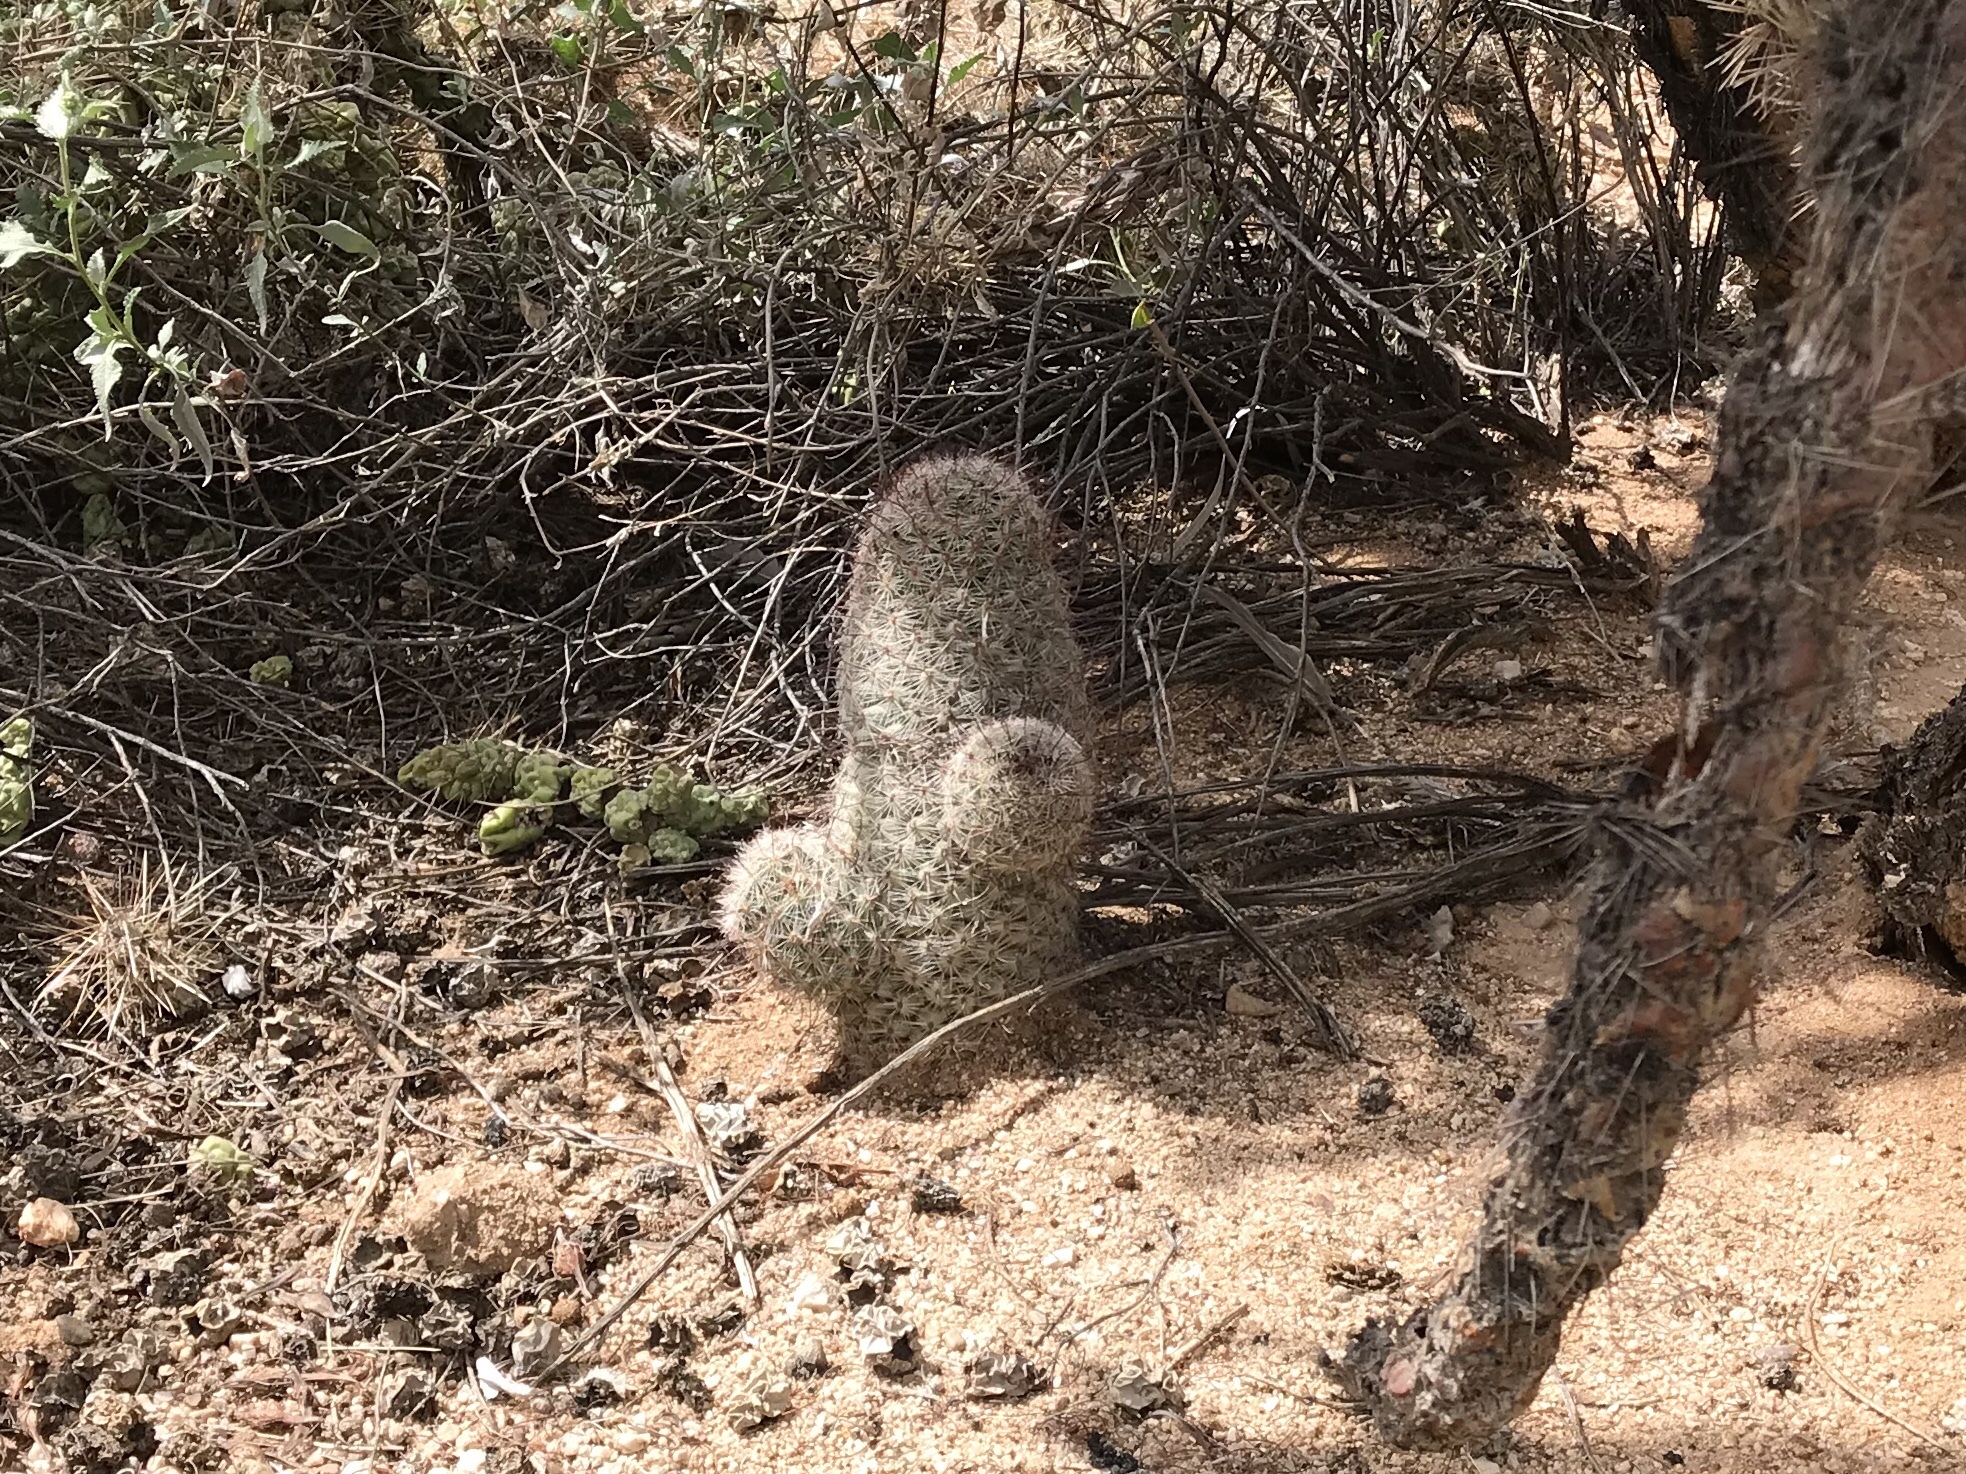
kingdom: Plantae
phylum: Tracheophyta
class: Magnoliopsida
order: Caryophyllales
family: Cactaceae
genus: Cochemiea
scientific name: Cochemiea grahamii
